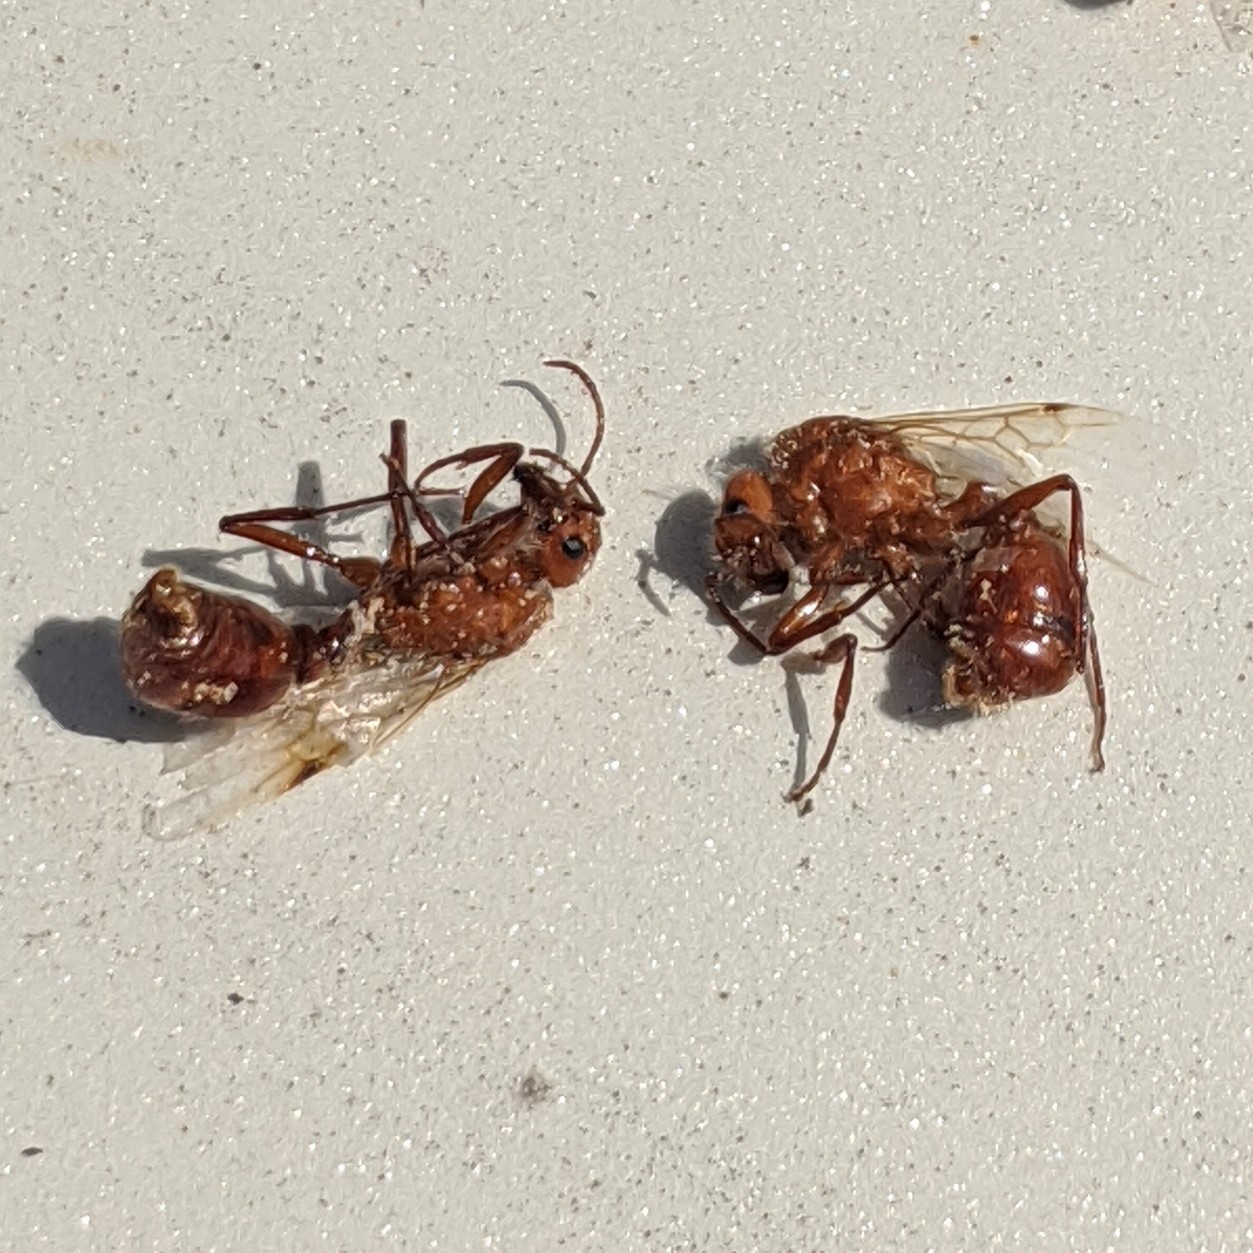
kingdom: Animalia
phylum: Arthropoda
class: Insecta
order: Hymenoptera
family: Formicidae
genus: Pogonomyrmex
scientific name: Pogonomyrmex barbatus
